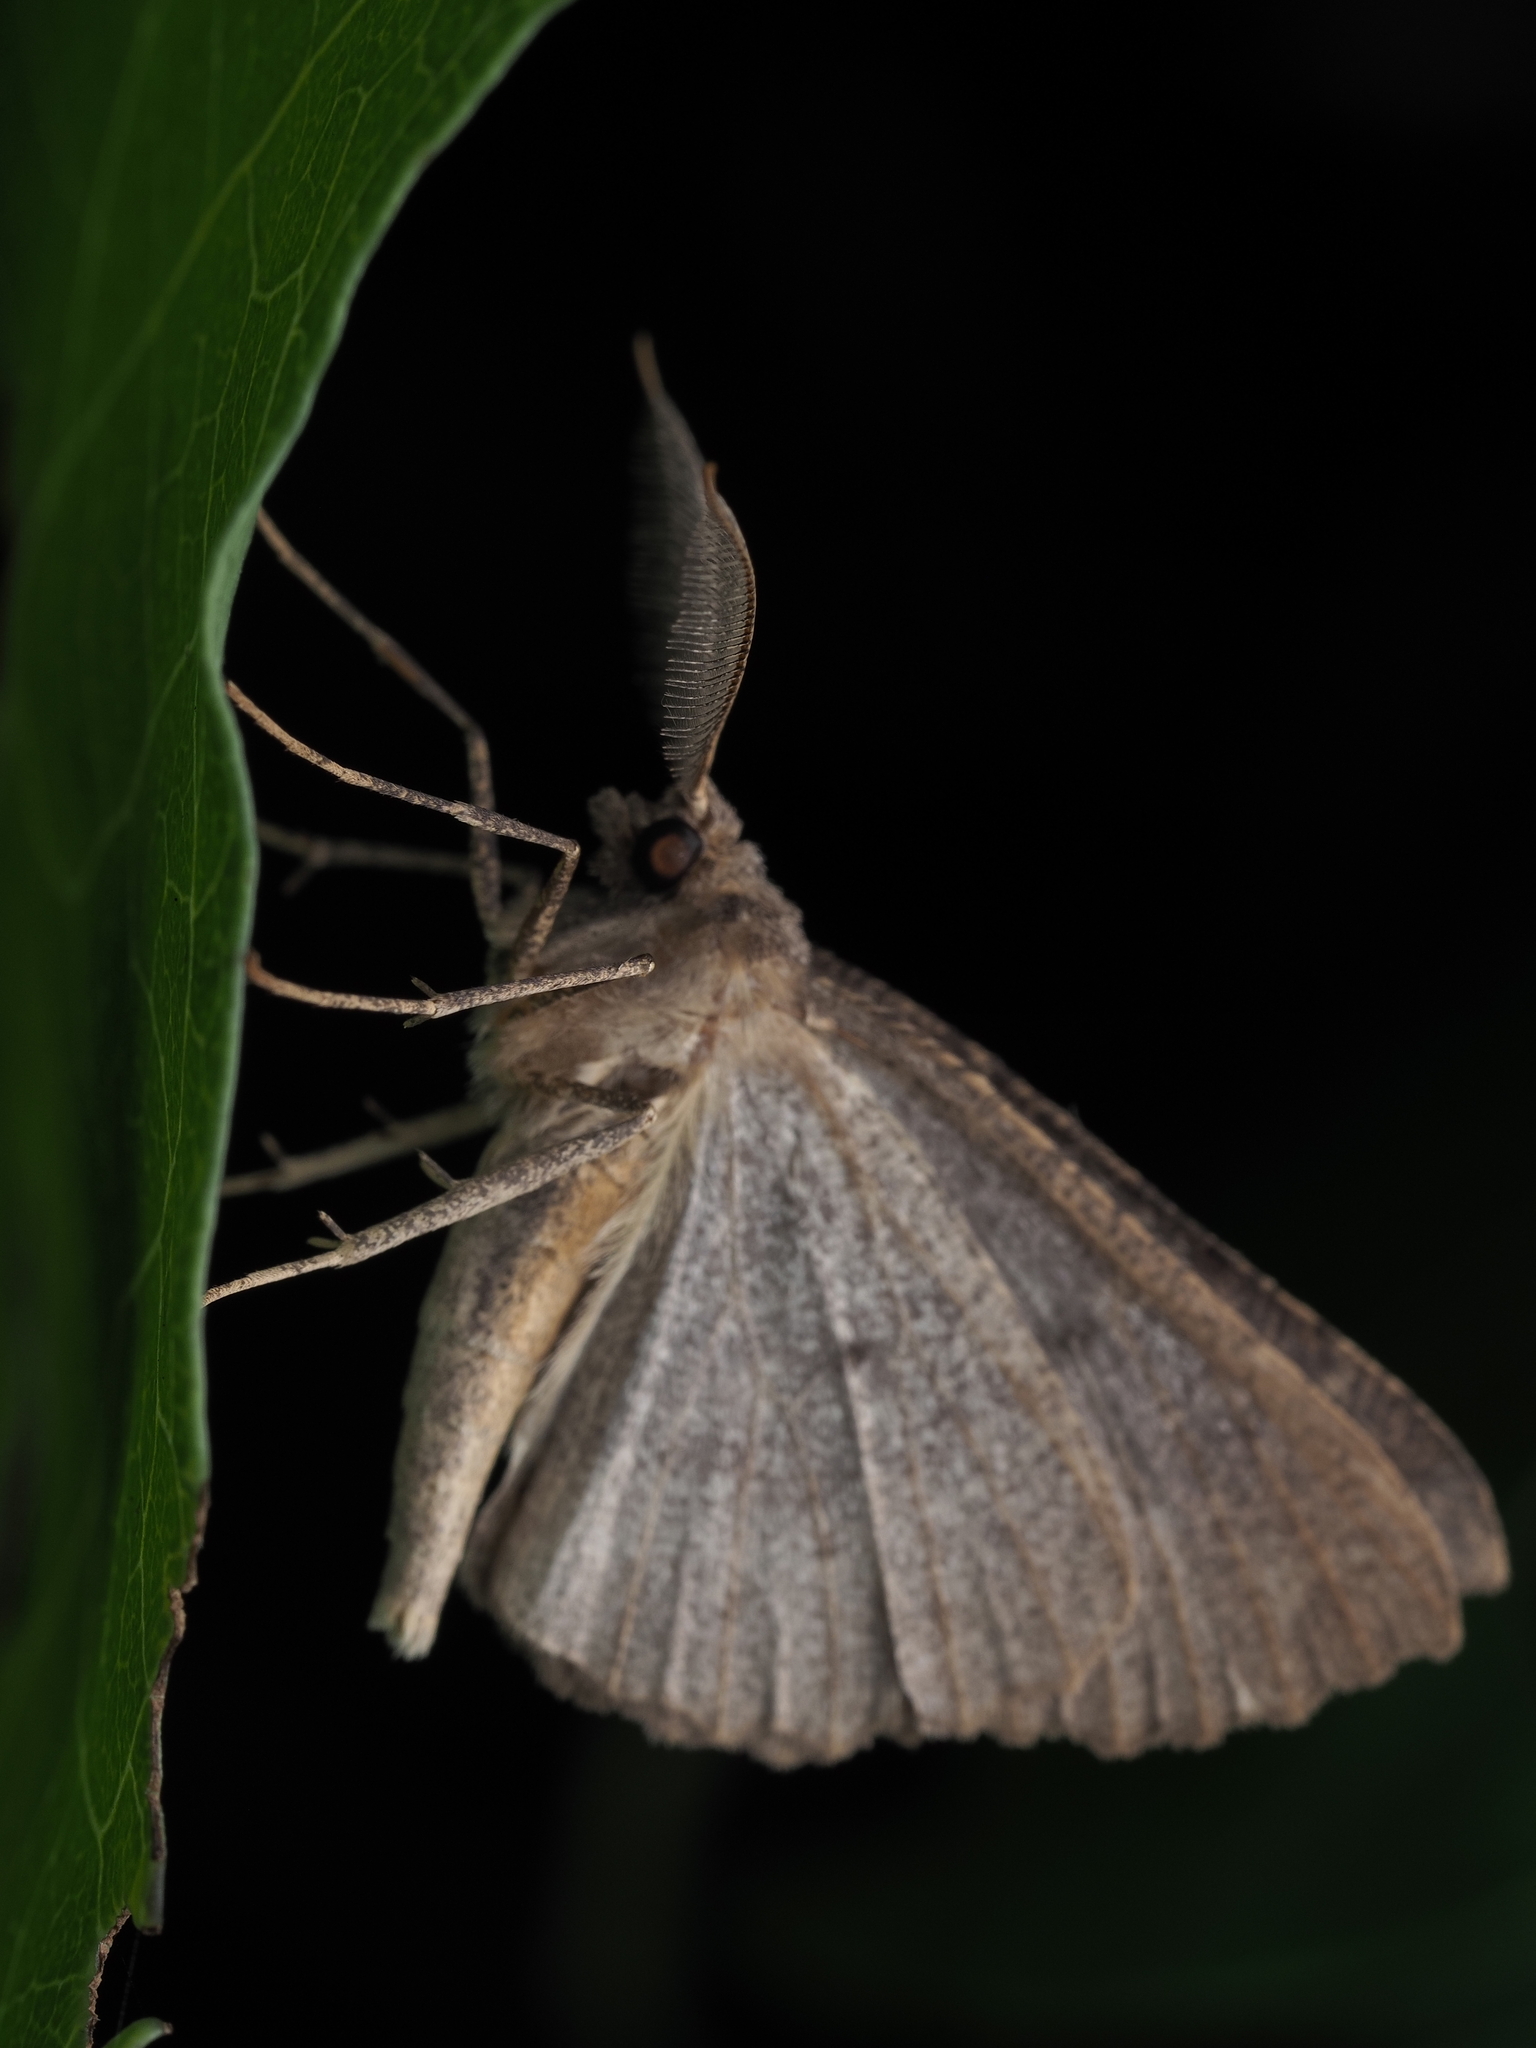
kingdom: Animalia
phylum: Arthropoda
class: Insecta
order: Lepidoptera
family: Geometridae
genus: Cleora
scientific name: Cleora scriptaria
